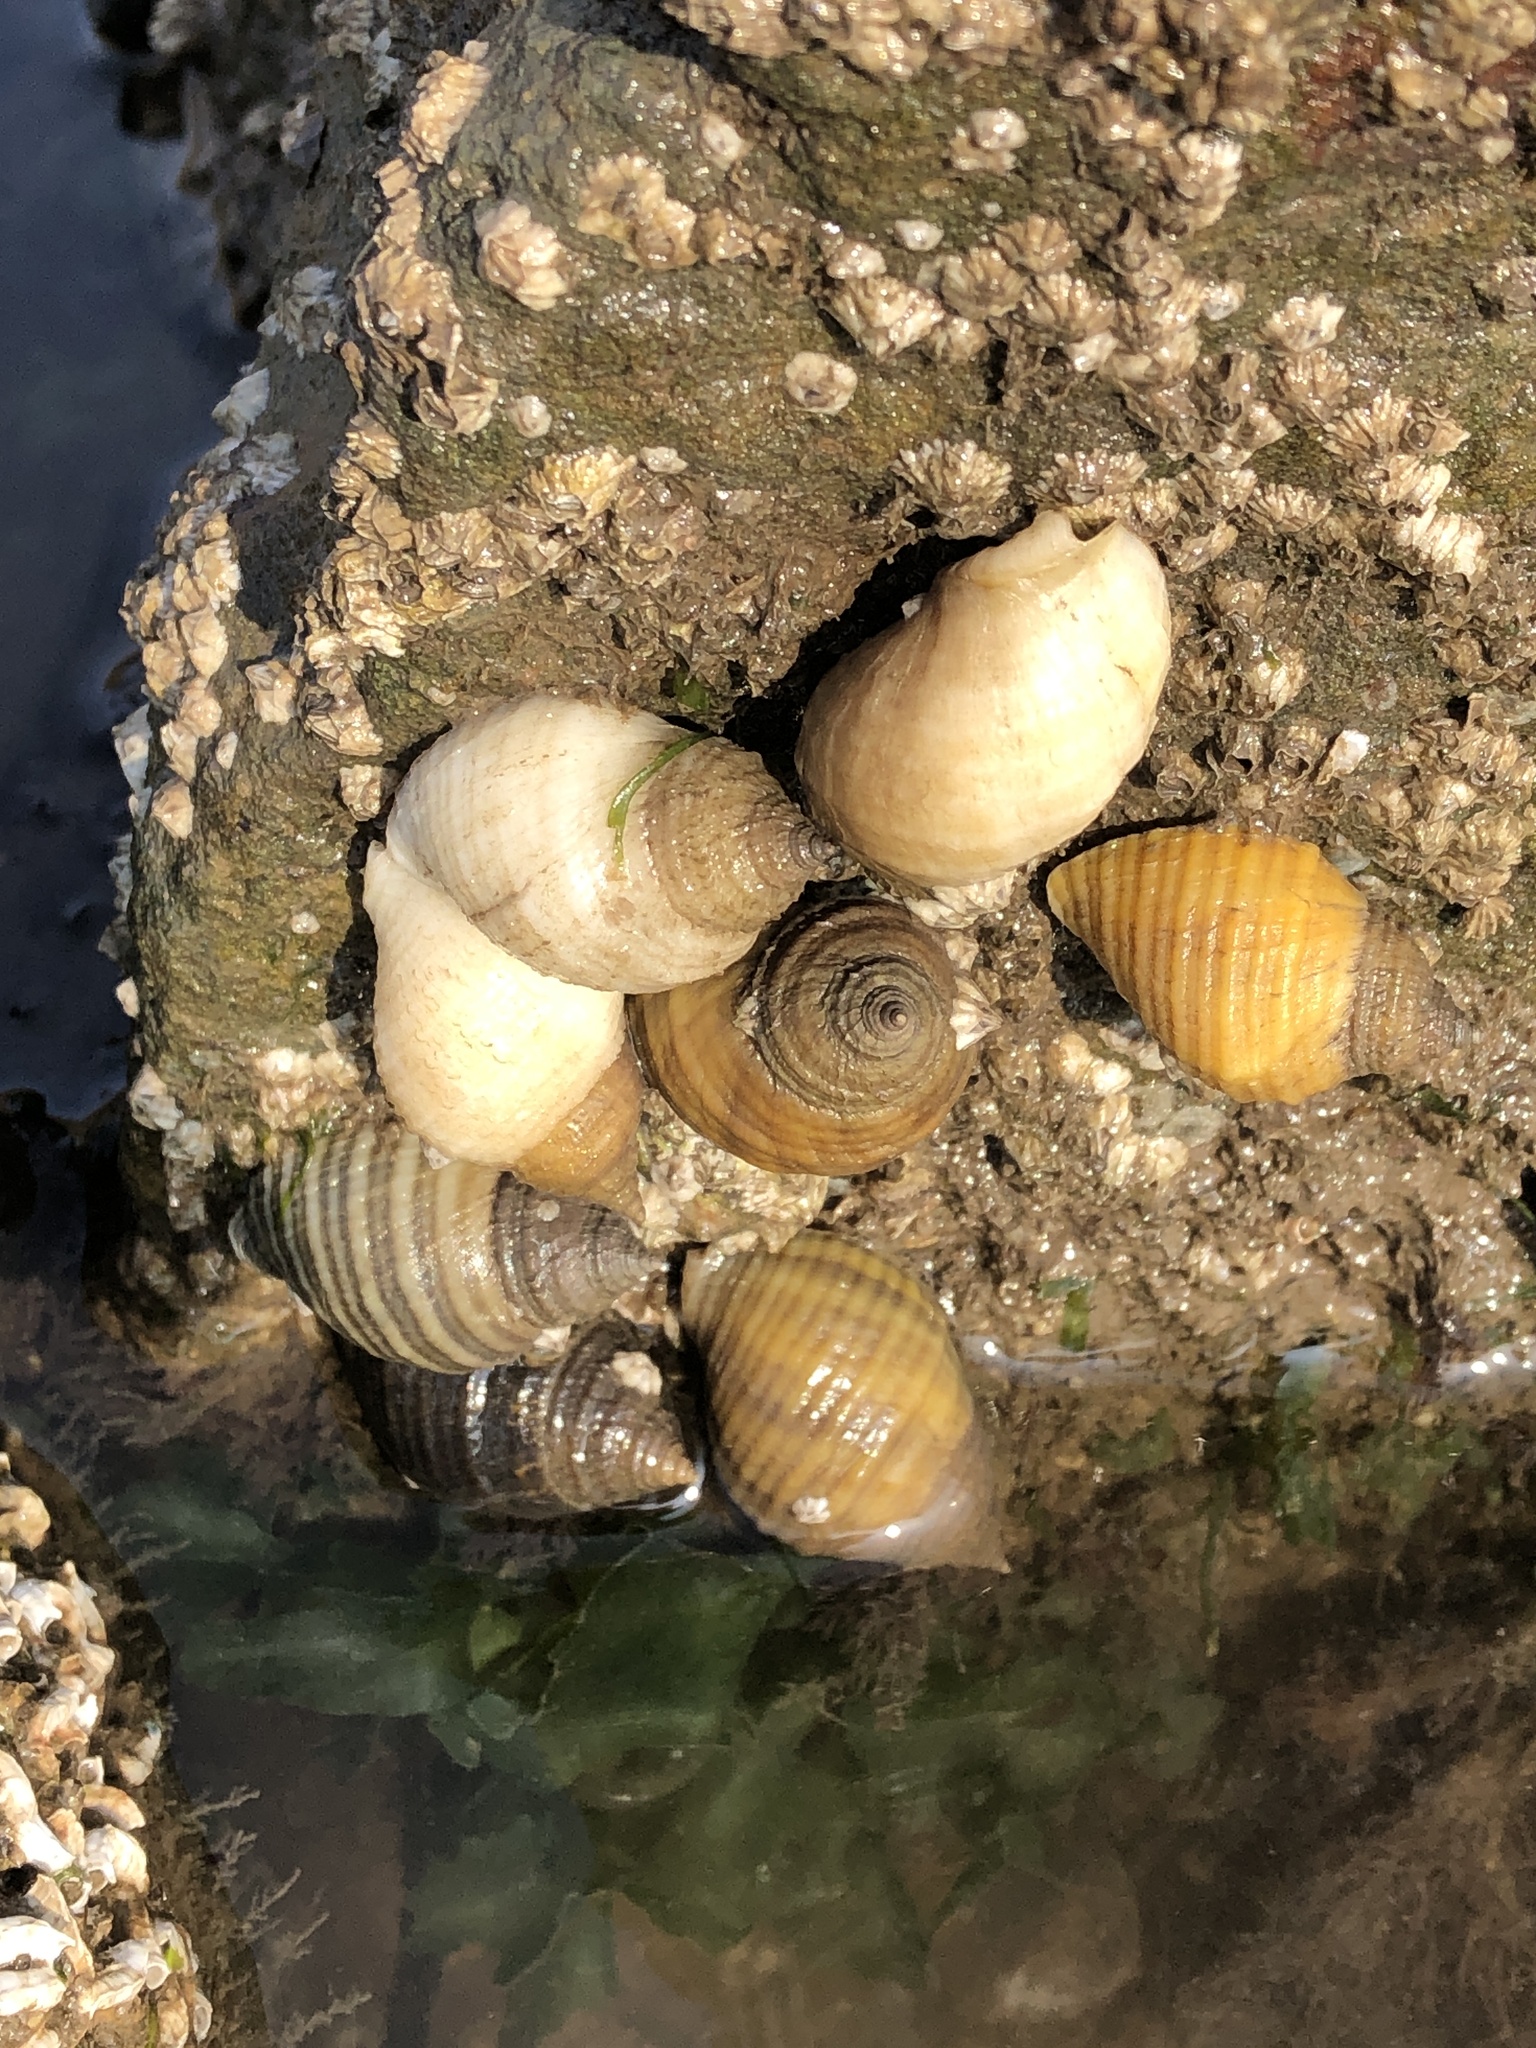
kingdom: Animalia
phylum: Mollusca
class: Gastropoda
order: Neogastropoda
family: Muricidae
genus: Nucella
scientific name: Nucella lapillus
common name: Dog whelk
